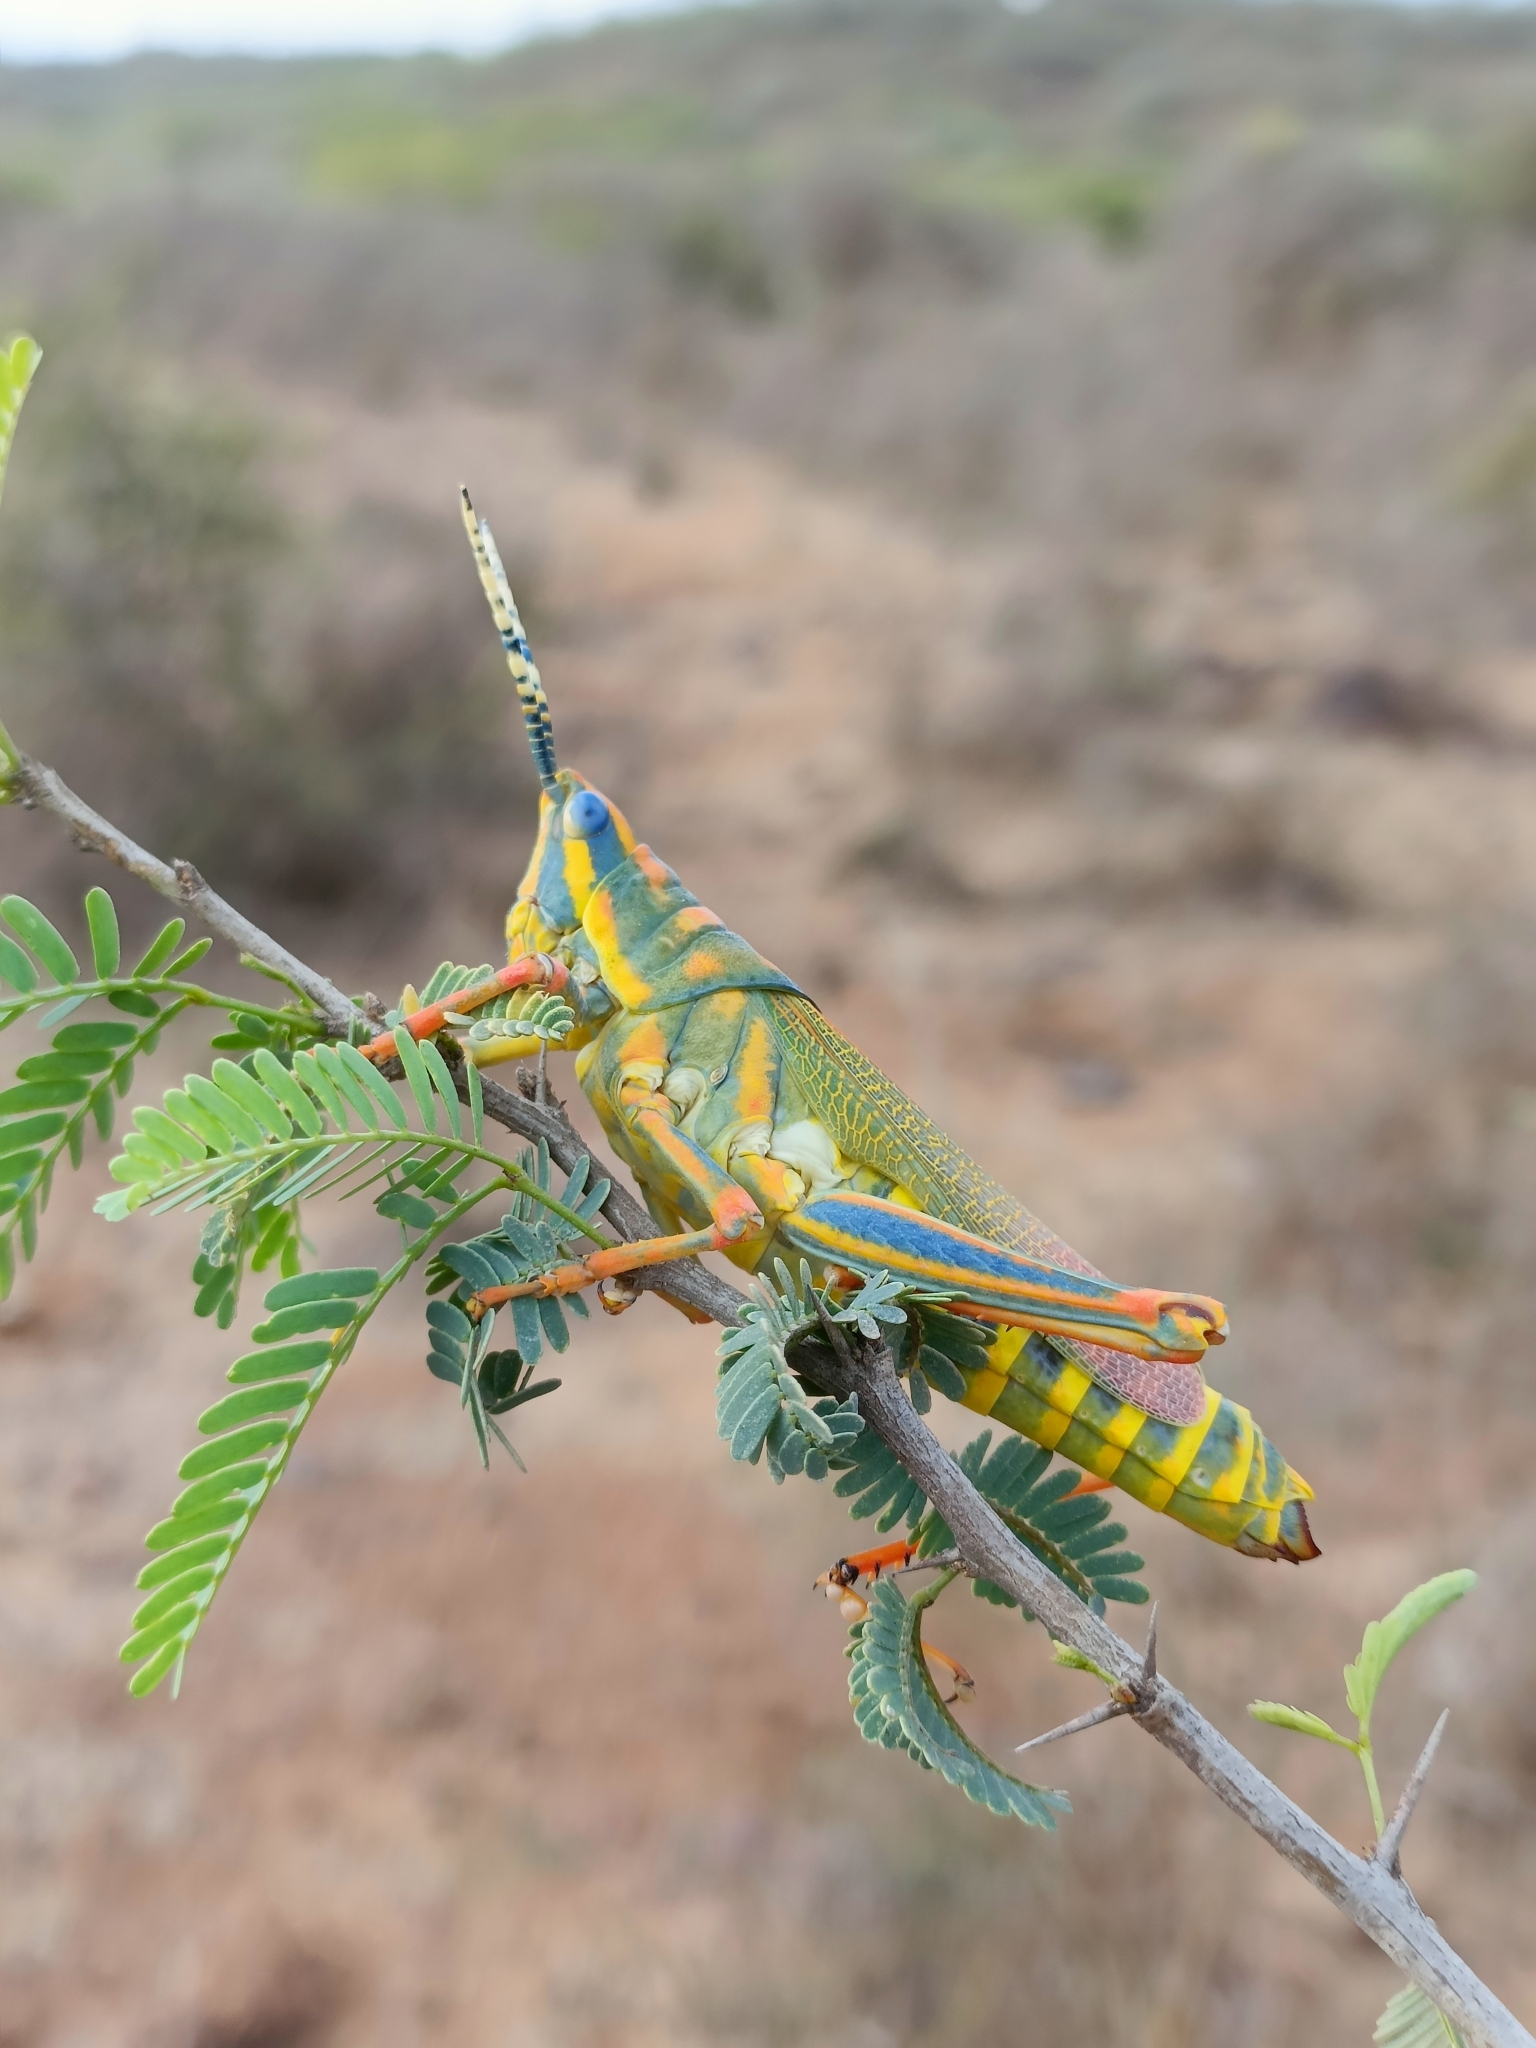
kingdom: Animalia
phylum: Arthropoda
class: Insecta
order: Orthoptera
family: Pyrgomorphidae
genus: Poekilocerus
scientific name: Poekilocerus pictus
